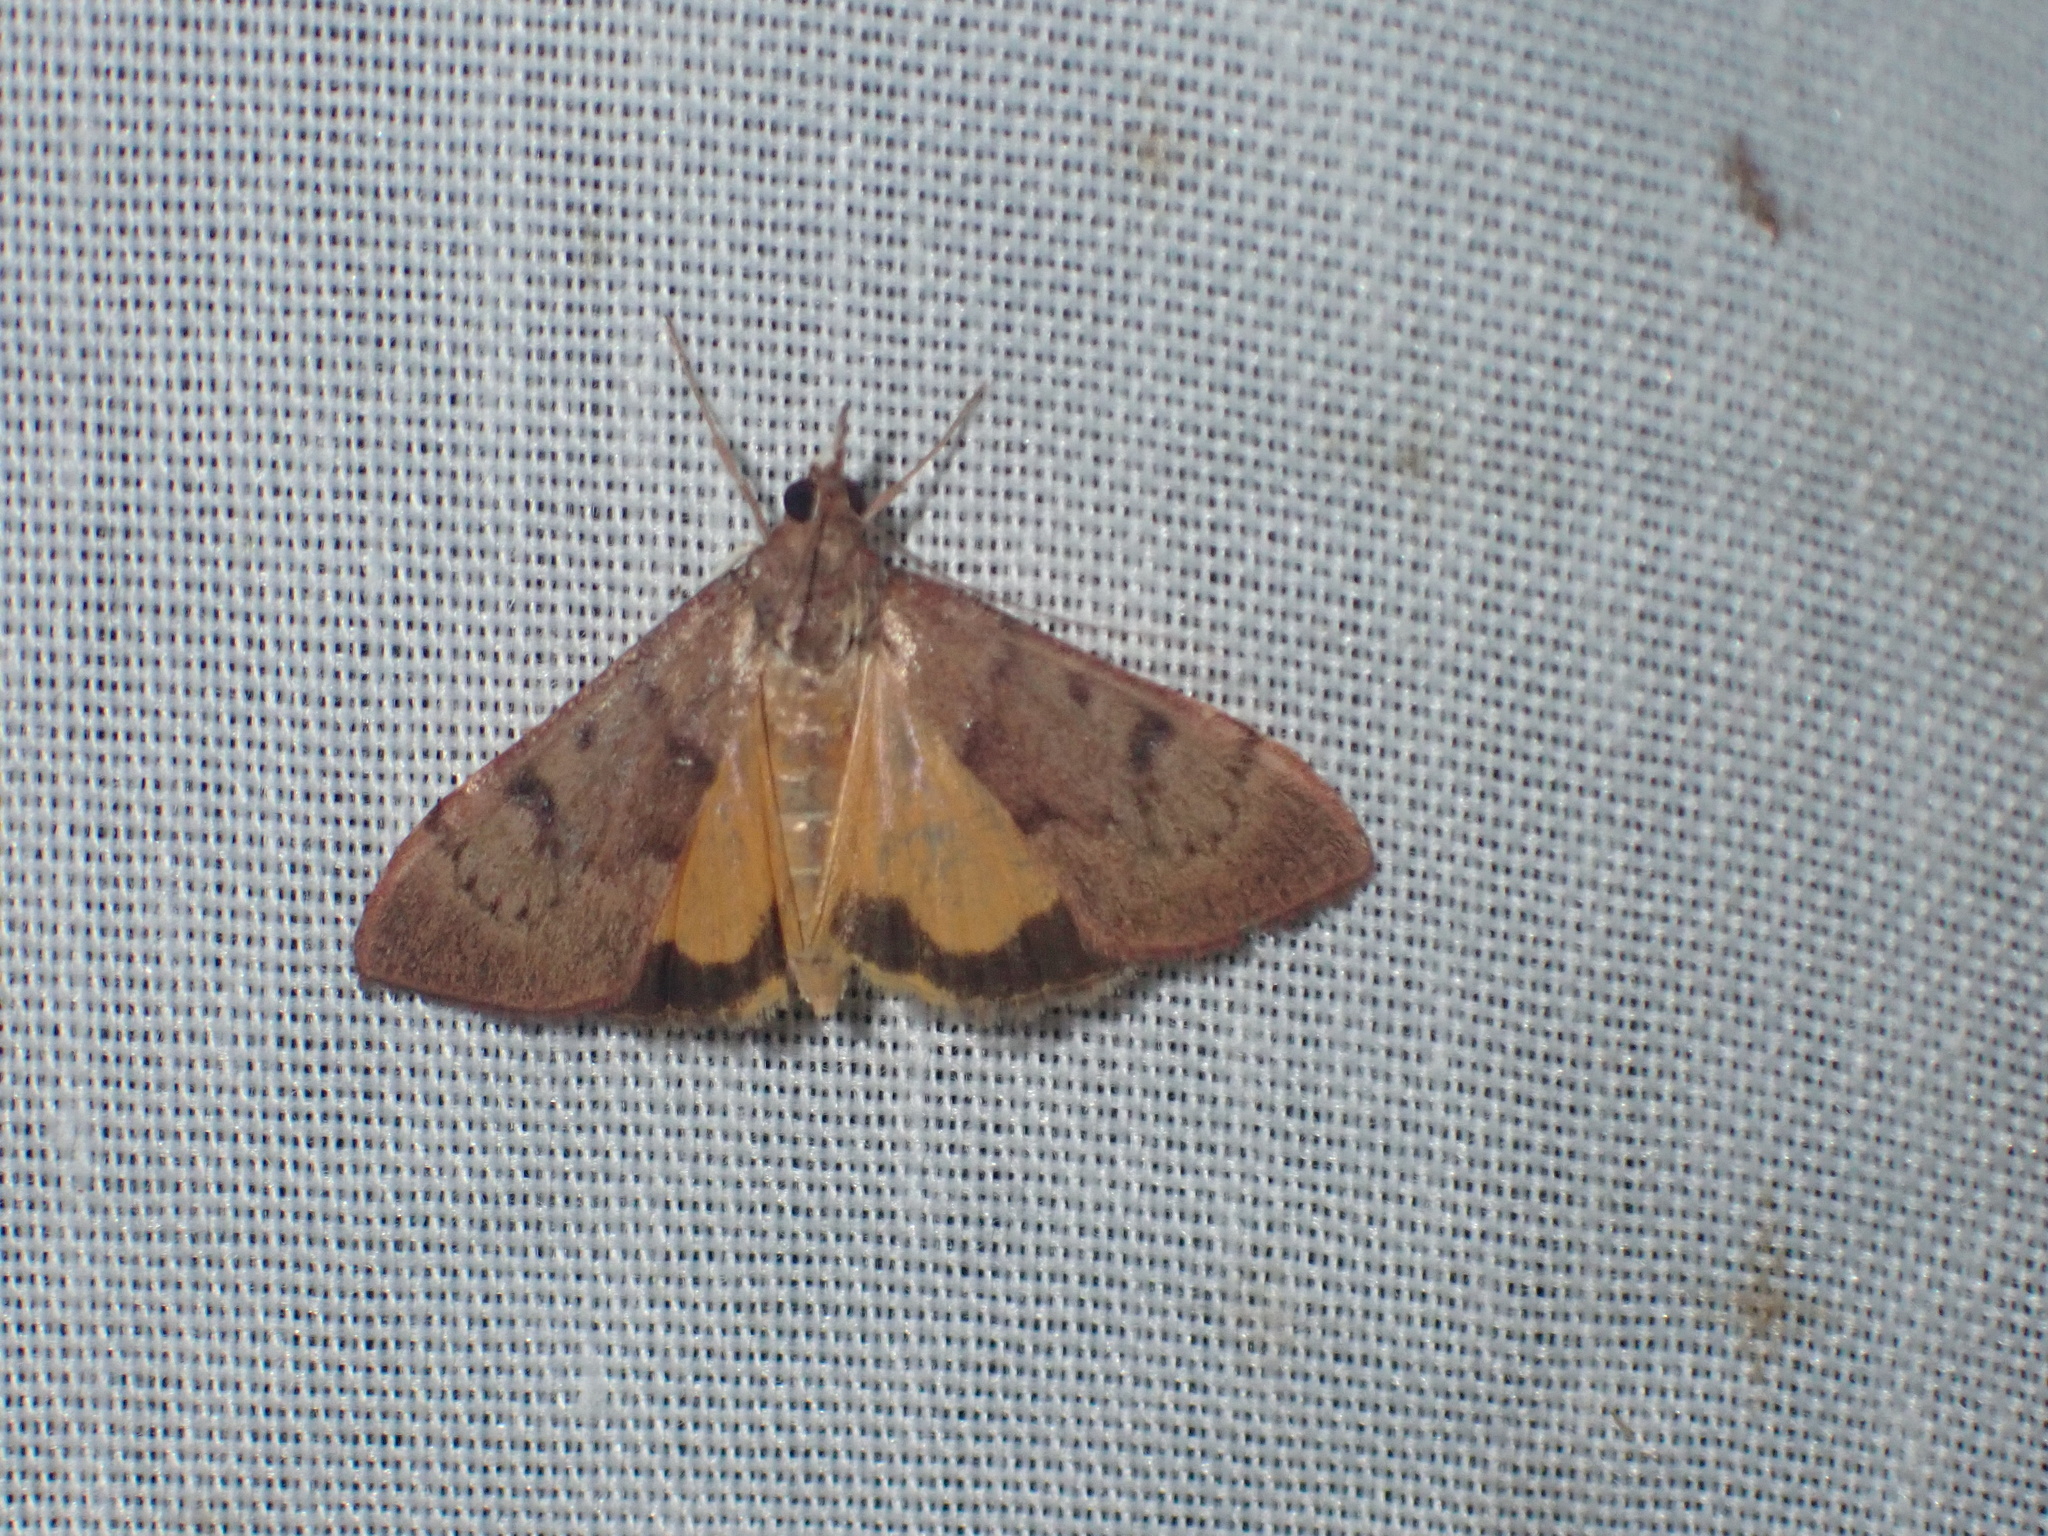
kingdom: Animalia
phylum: Arthropoda
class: Insecta
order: Lepidoptera
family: Crambidae
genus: Uresiphita
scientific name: Uresiphita gilvata
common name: Yellow-underwing pearl
